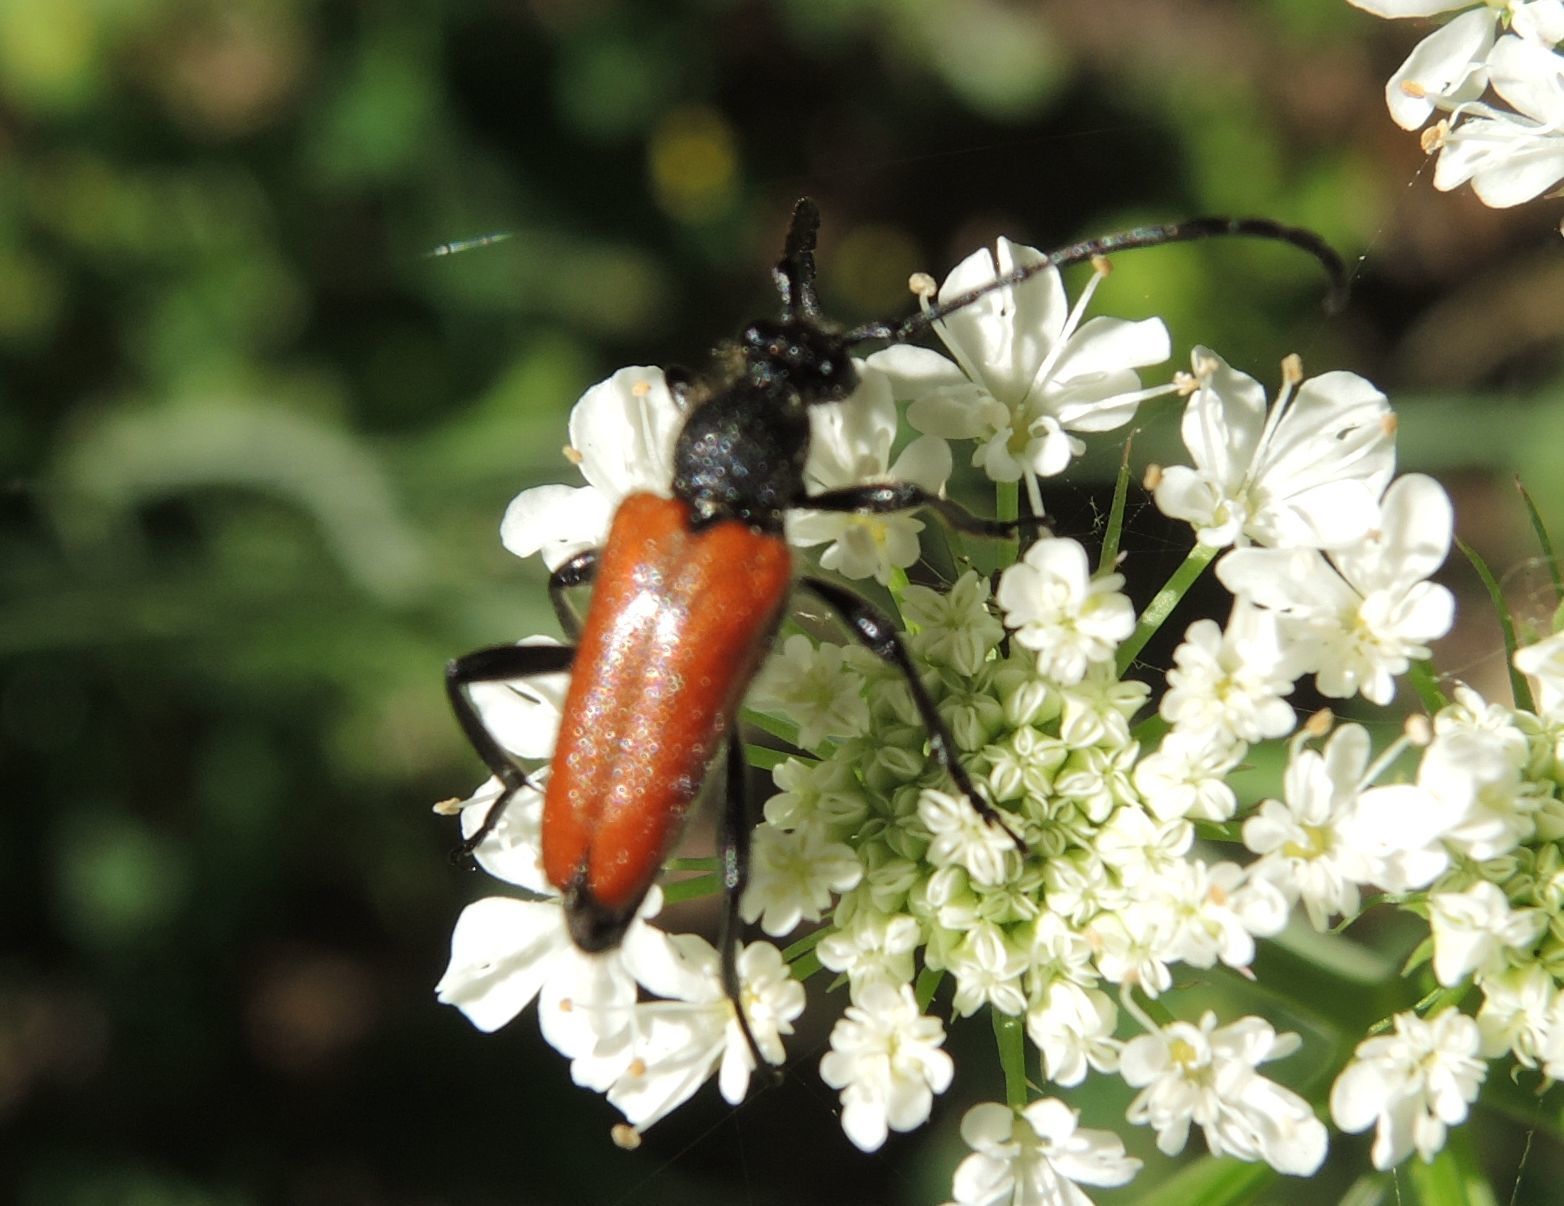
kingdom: Animalia
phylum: Arthropoda
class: Insecta
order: Coleoptera
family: Cerambycidae
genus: Paracorymbia
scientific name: Paracorymbia pallens
